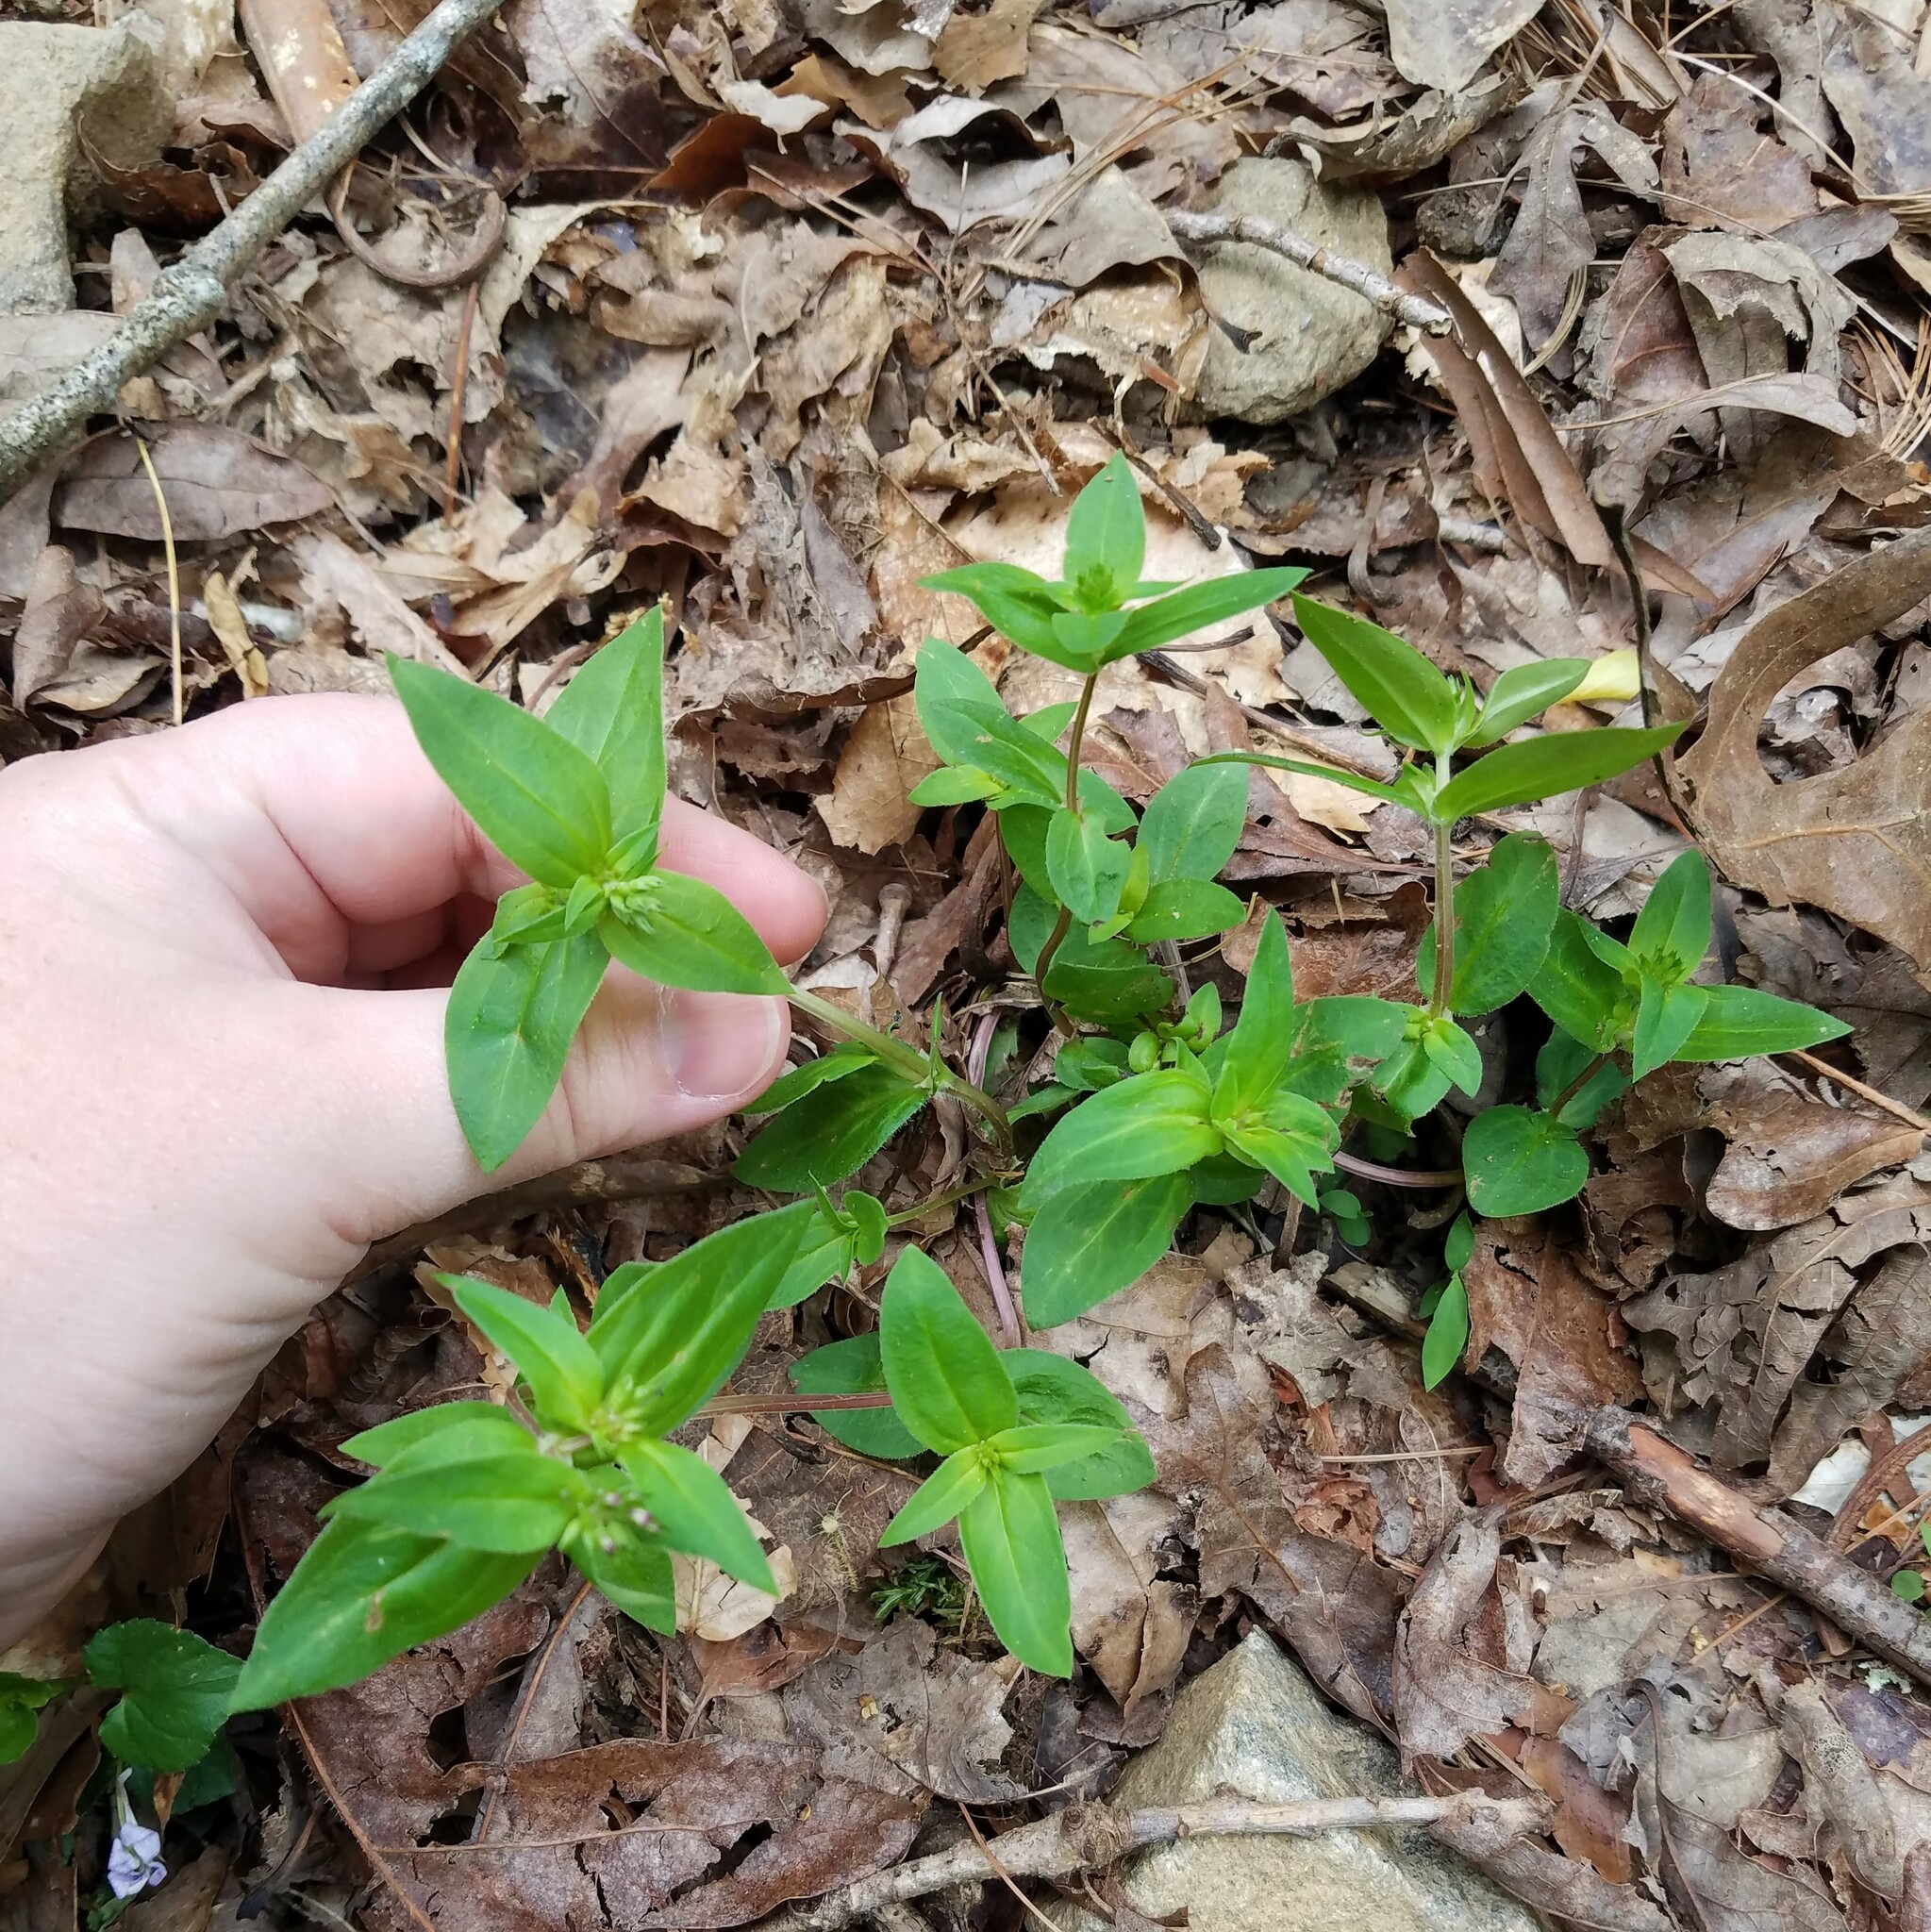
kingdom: Plantae
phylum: Tracheophyta
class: Magnoliopsida
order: Gentianales
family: Rubiaceae
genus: Houstonia
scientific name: Houstonia purpurea
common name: Summer bluet
